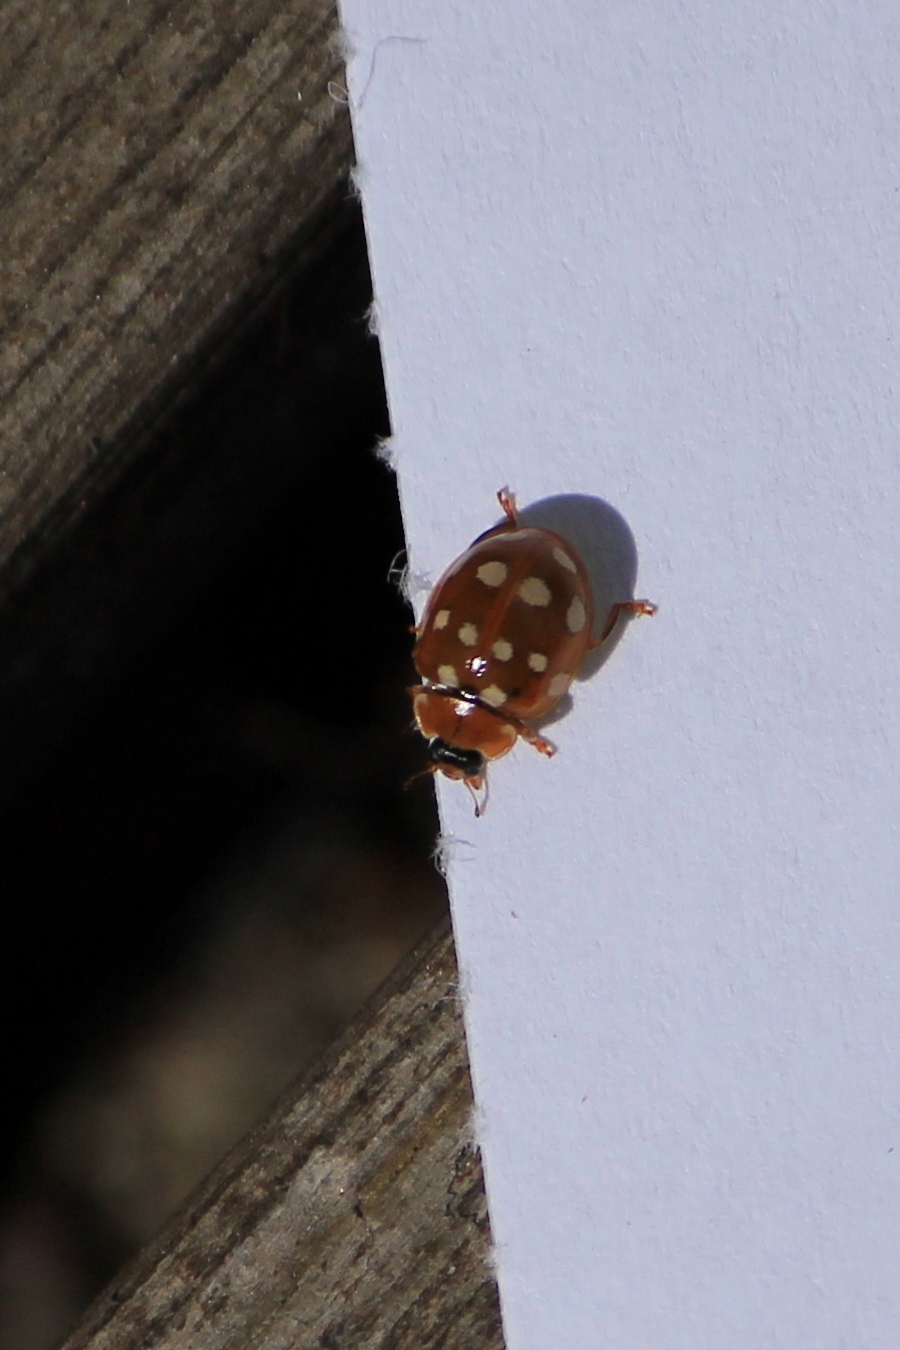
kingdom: Animalia
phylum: Arthropoda
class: Insecta
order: Coleoptera
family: Coccinellidae
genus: Calvia
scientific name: Calvia quatuordecimguttata
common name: Cream-spot ladybird
